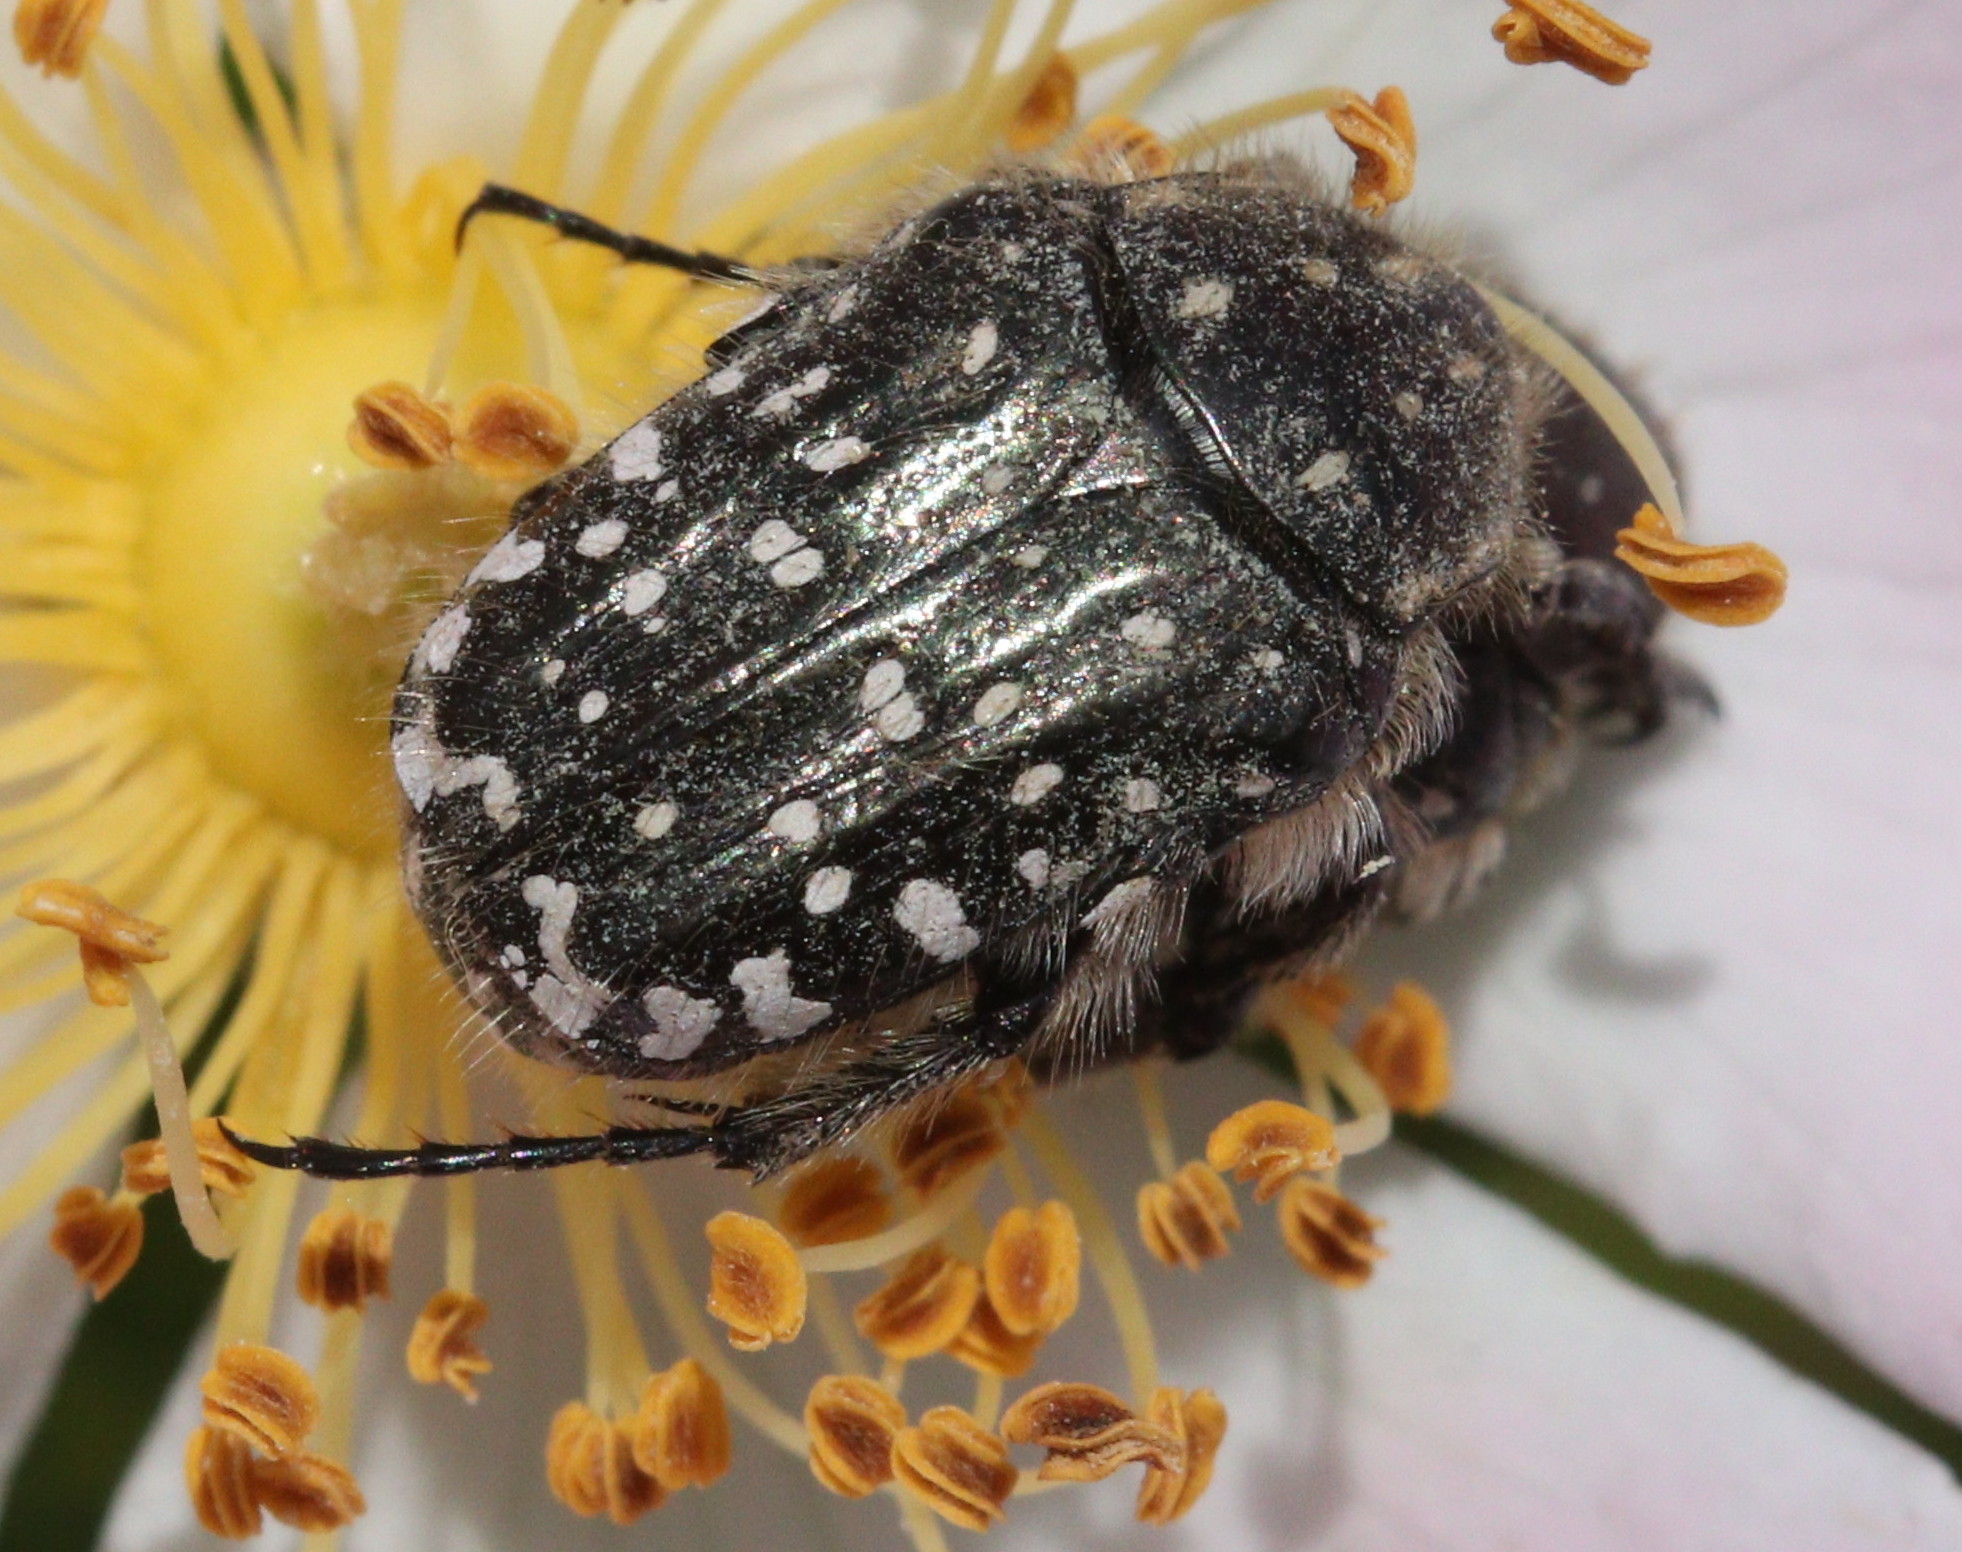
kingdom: Animalia
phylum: Arthropoda
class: Insecta
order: Coleoptera
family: Scarabaeidae
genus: Oxythyrea
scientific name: Oxythyrea funesta
